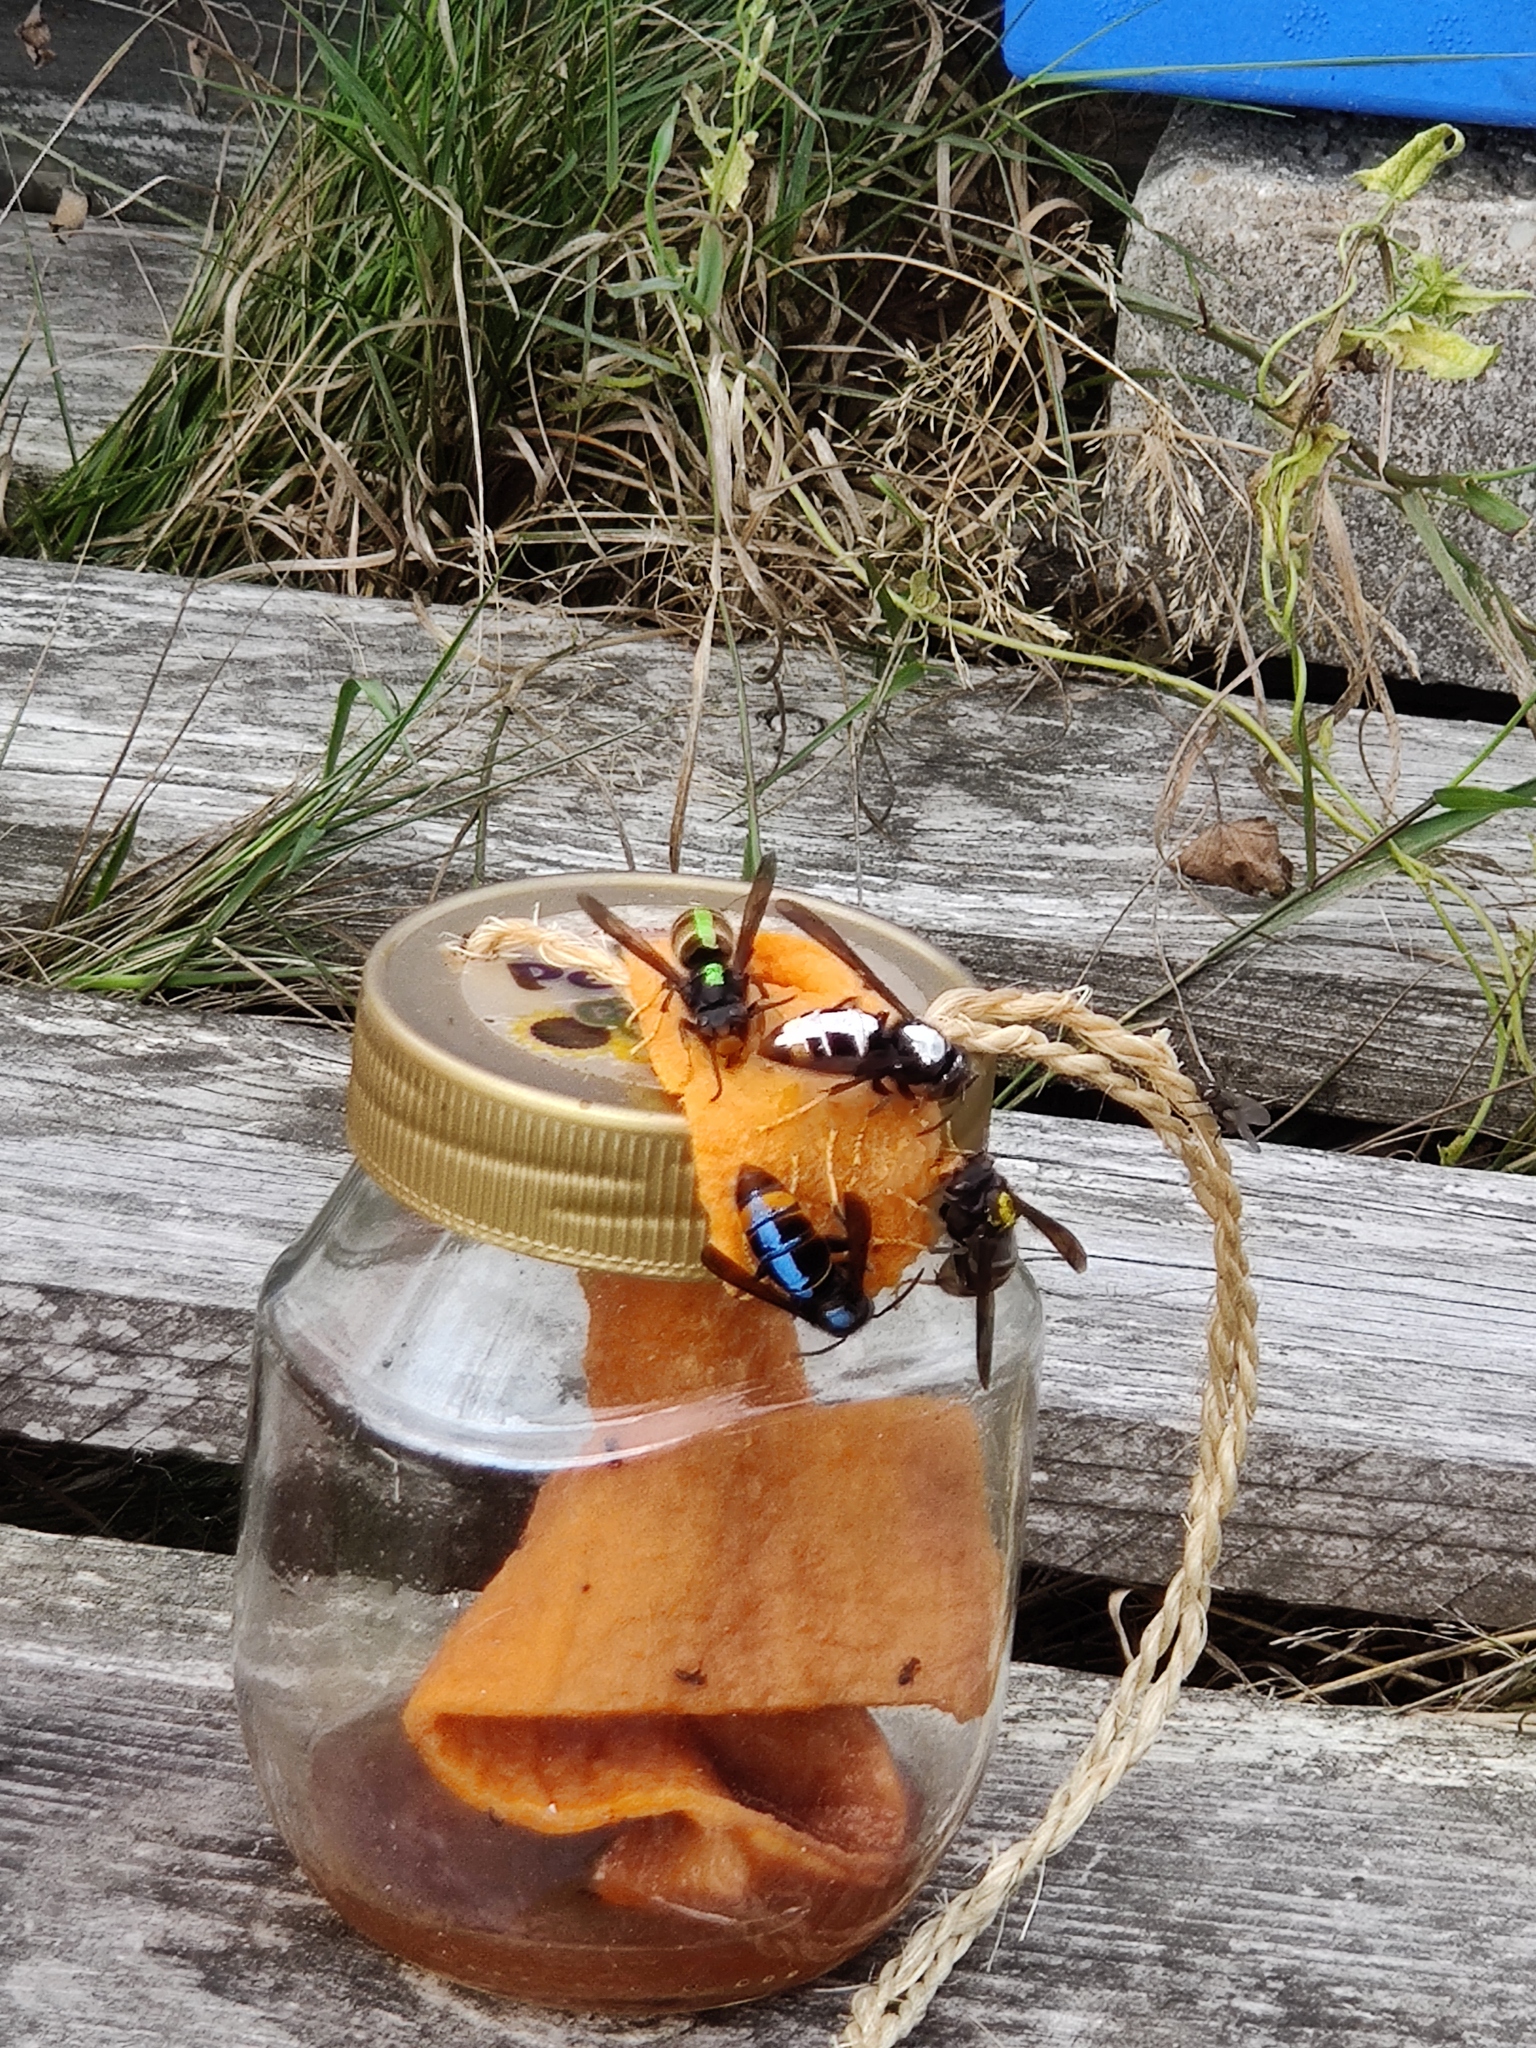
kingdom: Animalia
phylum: Arthropoda
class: Insecta
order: Hymenoptera
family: Vespidae
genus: Vespa
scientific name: Vespa velutina
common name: Asian hornet
